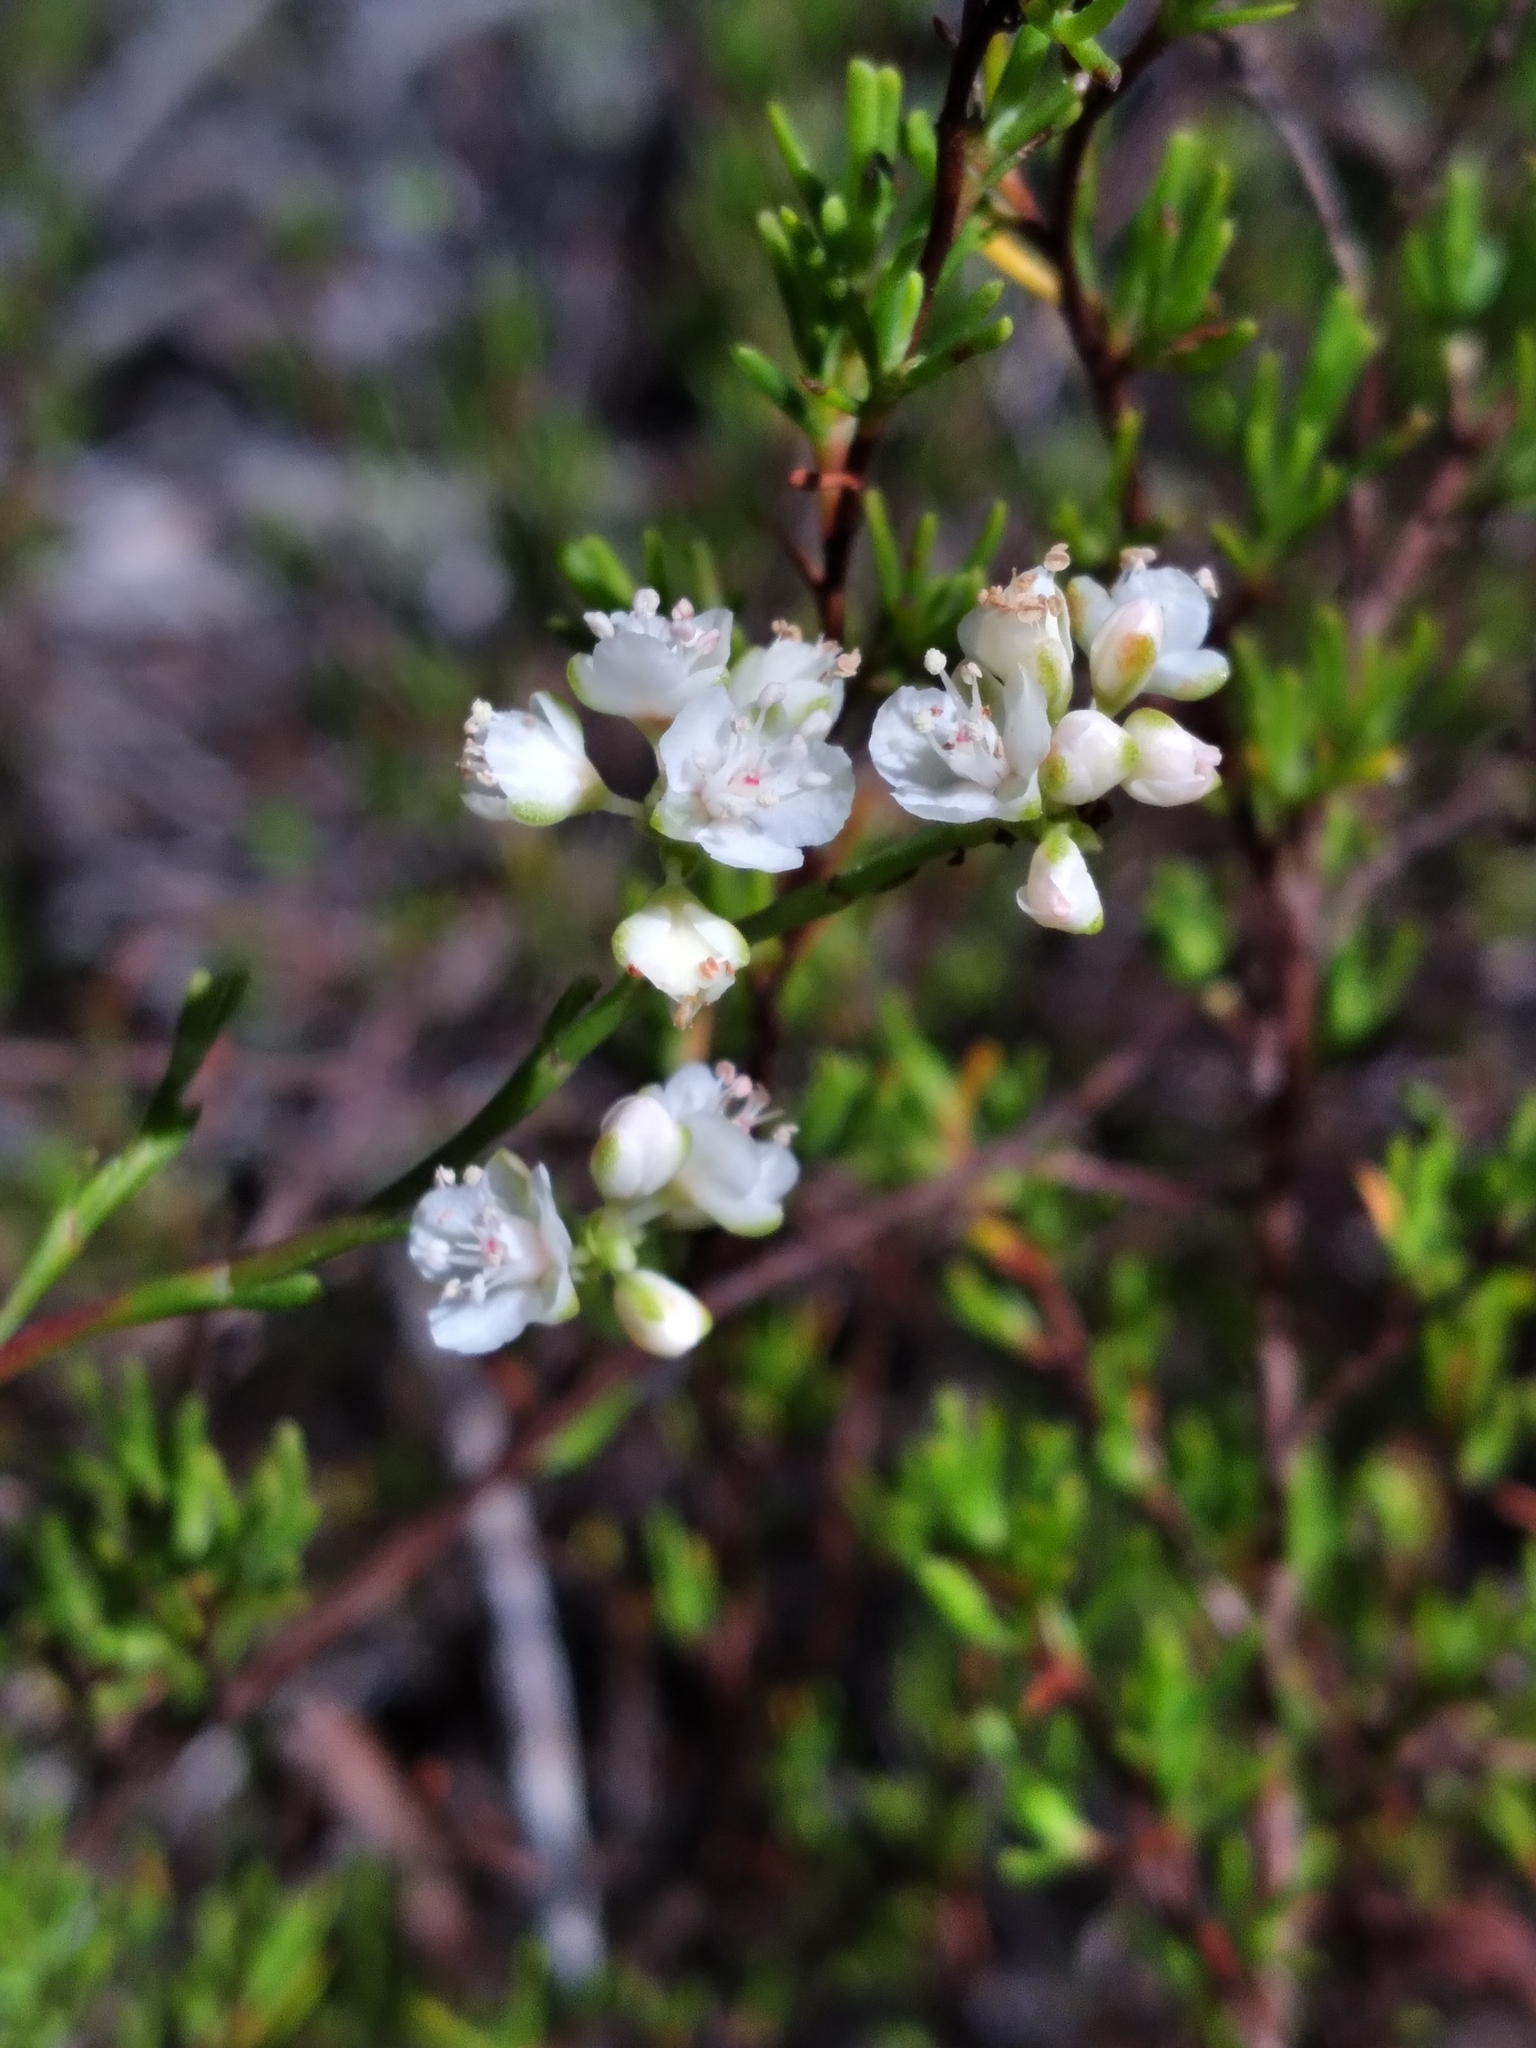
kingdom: Plantae
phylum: Tracheophyta
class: Magnoliopsida
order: Caryophyllales
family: Polygonaceae
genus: Polygonella
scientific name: Polygonella myriophylla
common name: Sandlace
